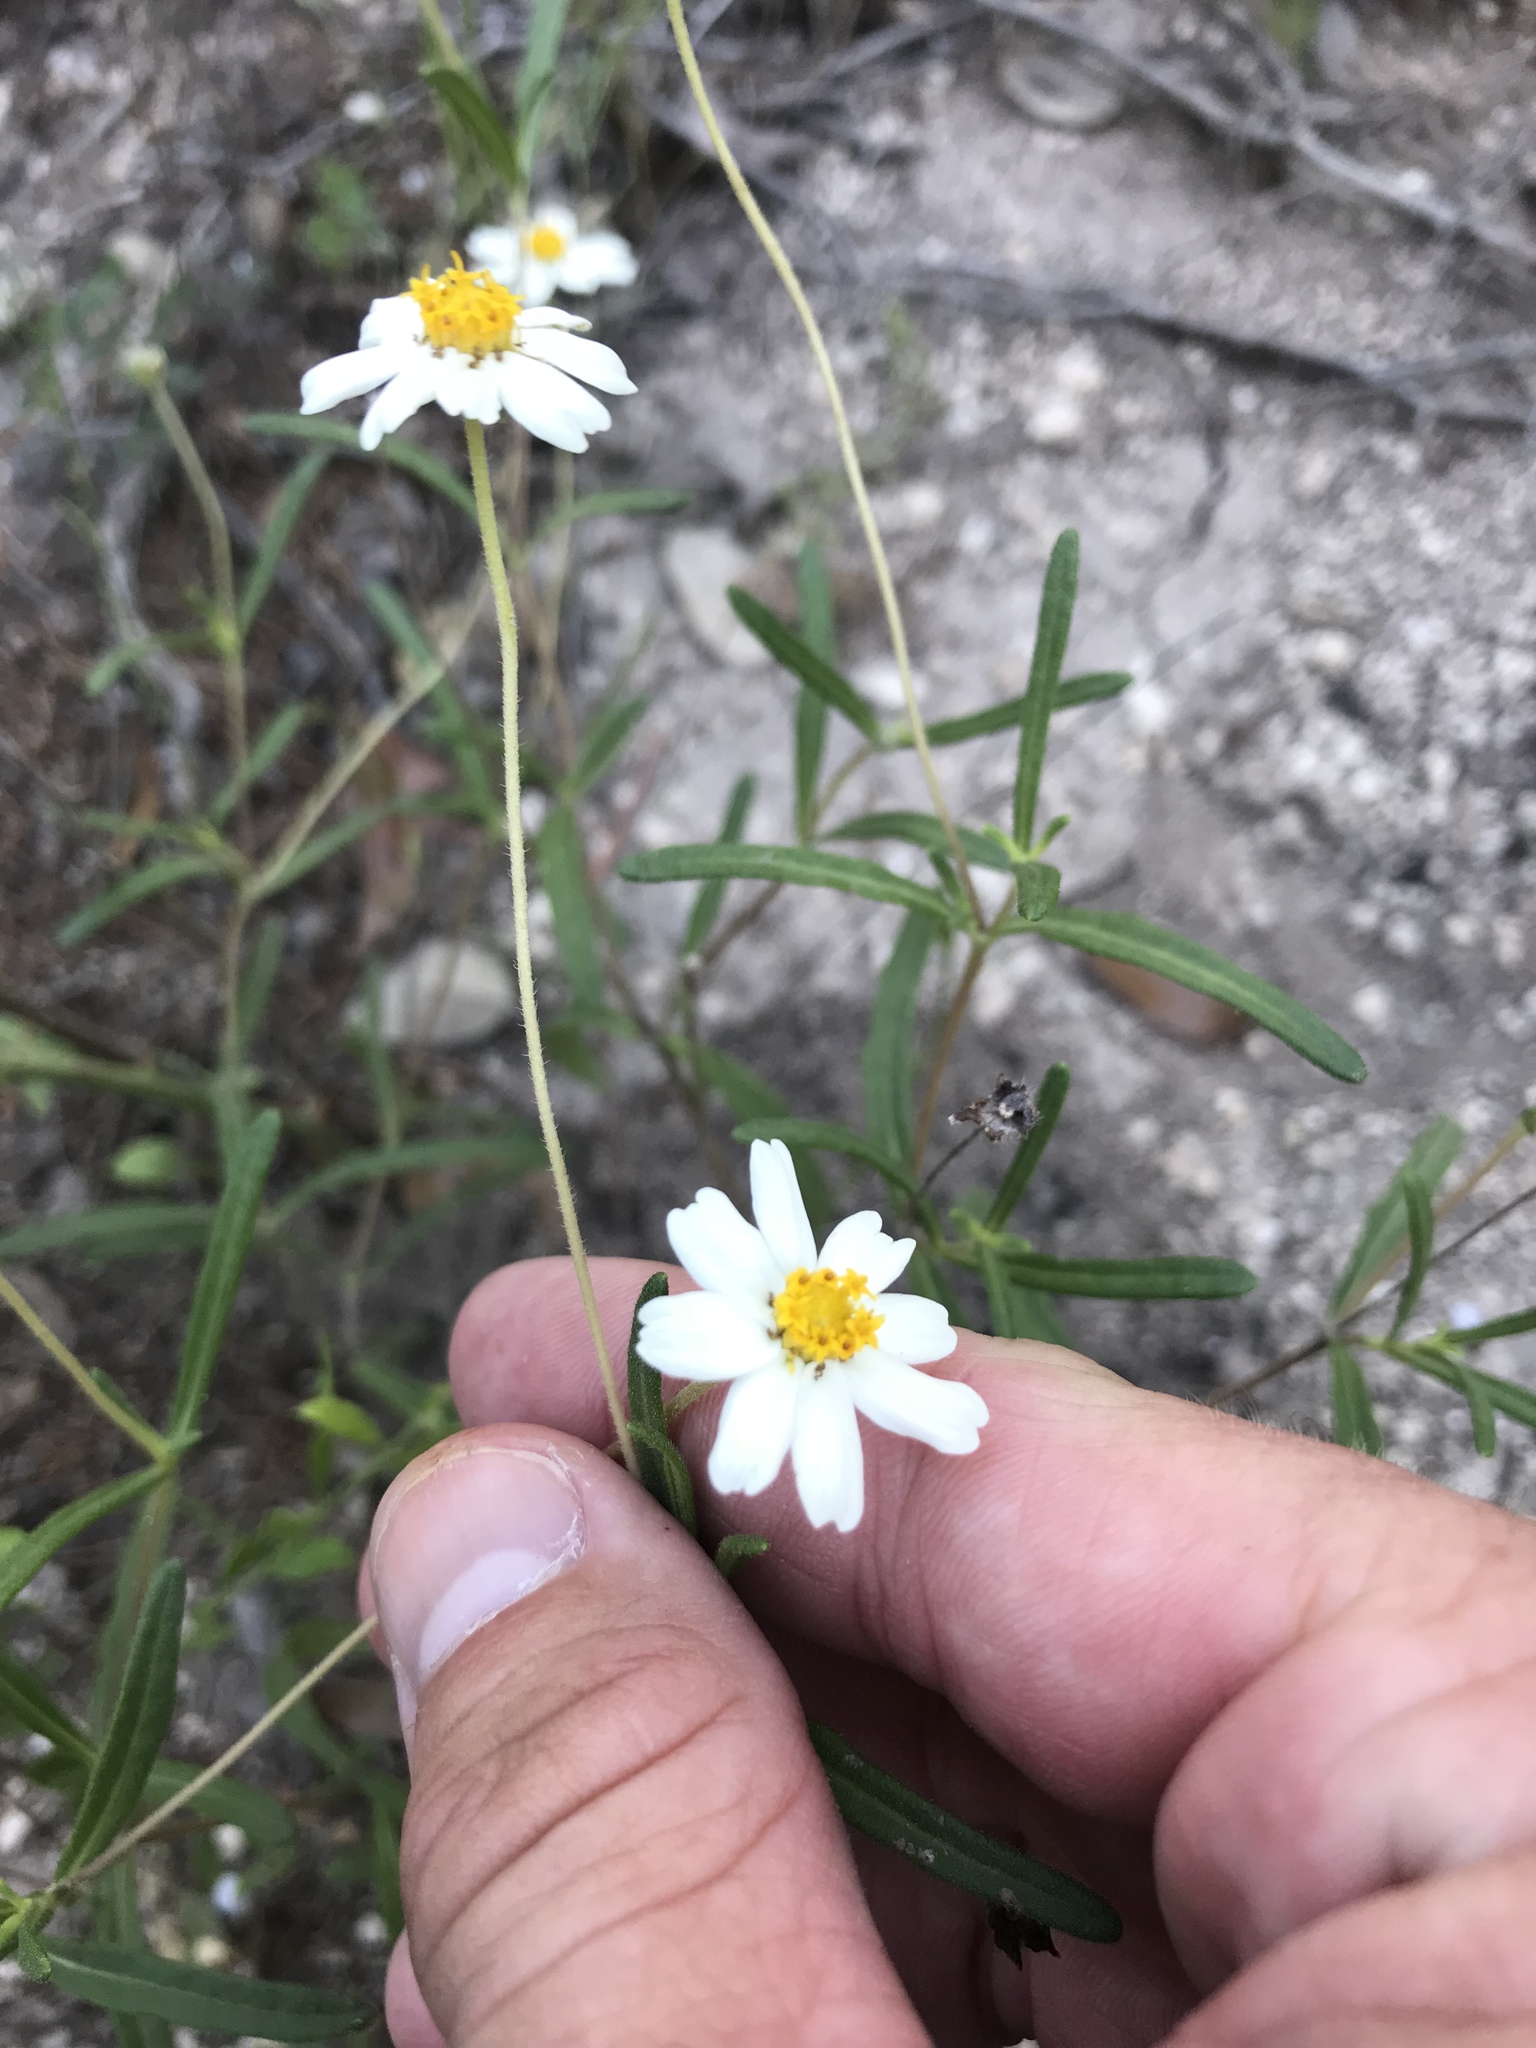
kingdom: Plantae
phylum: Tracheophyta
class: Magnoliopsida
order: Asterales
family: Asteraceae
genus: Melampodium
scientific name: Melampodium leucanthum
